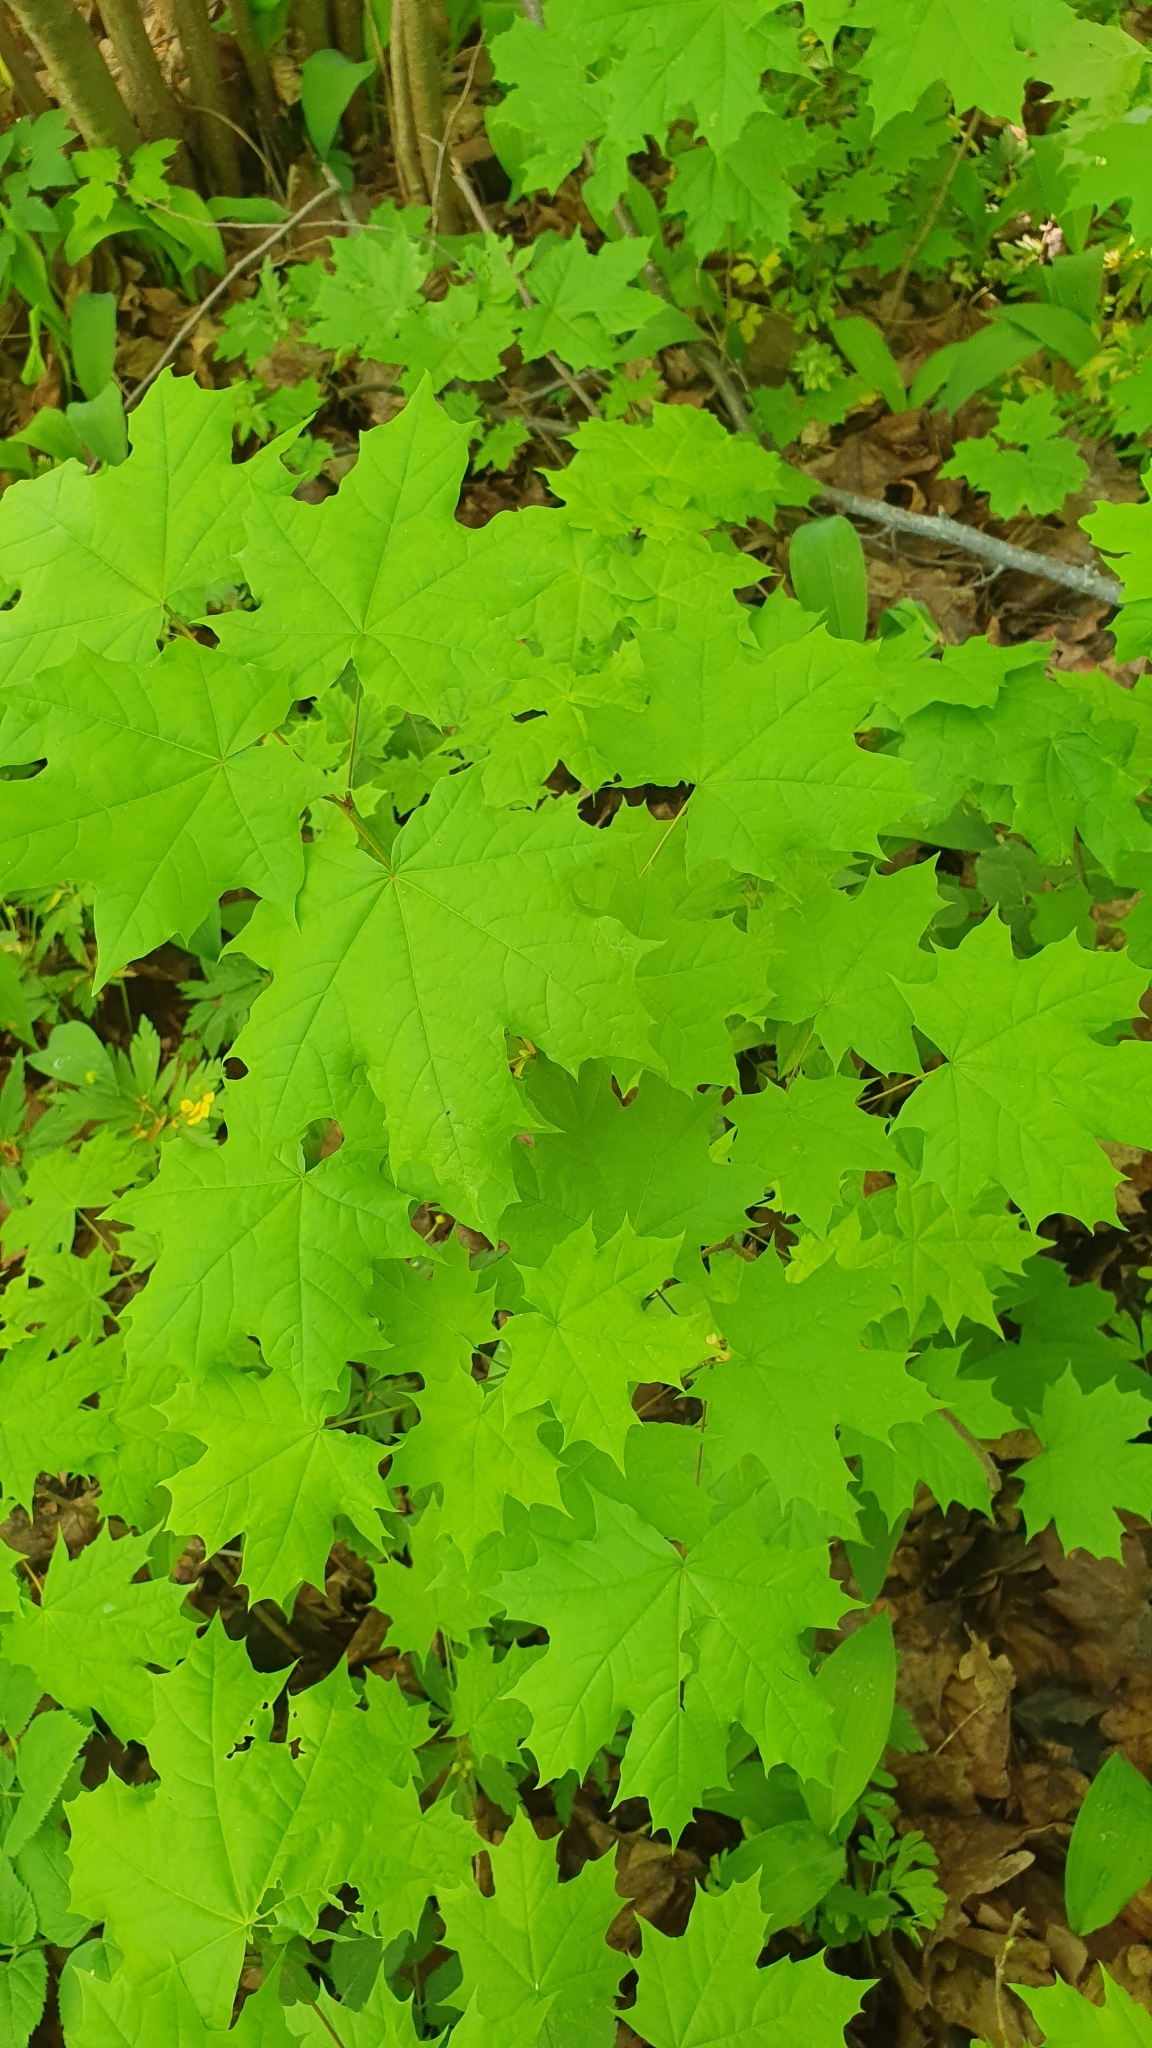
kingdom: Plantae
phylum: Tracheophyta
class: Magnoliopsida
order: Sapindales
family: Sapindaceae
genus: Acer
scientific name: Acer platanoides
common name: Norway maple
